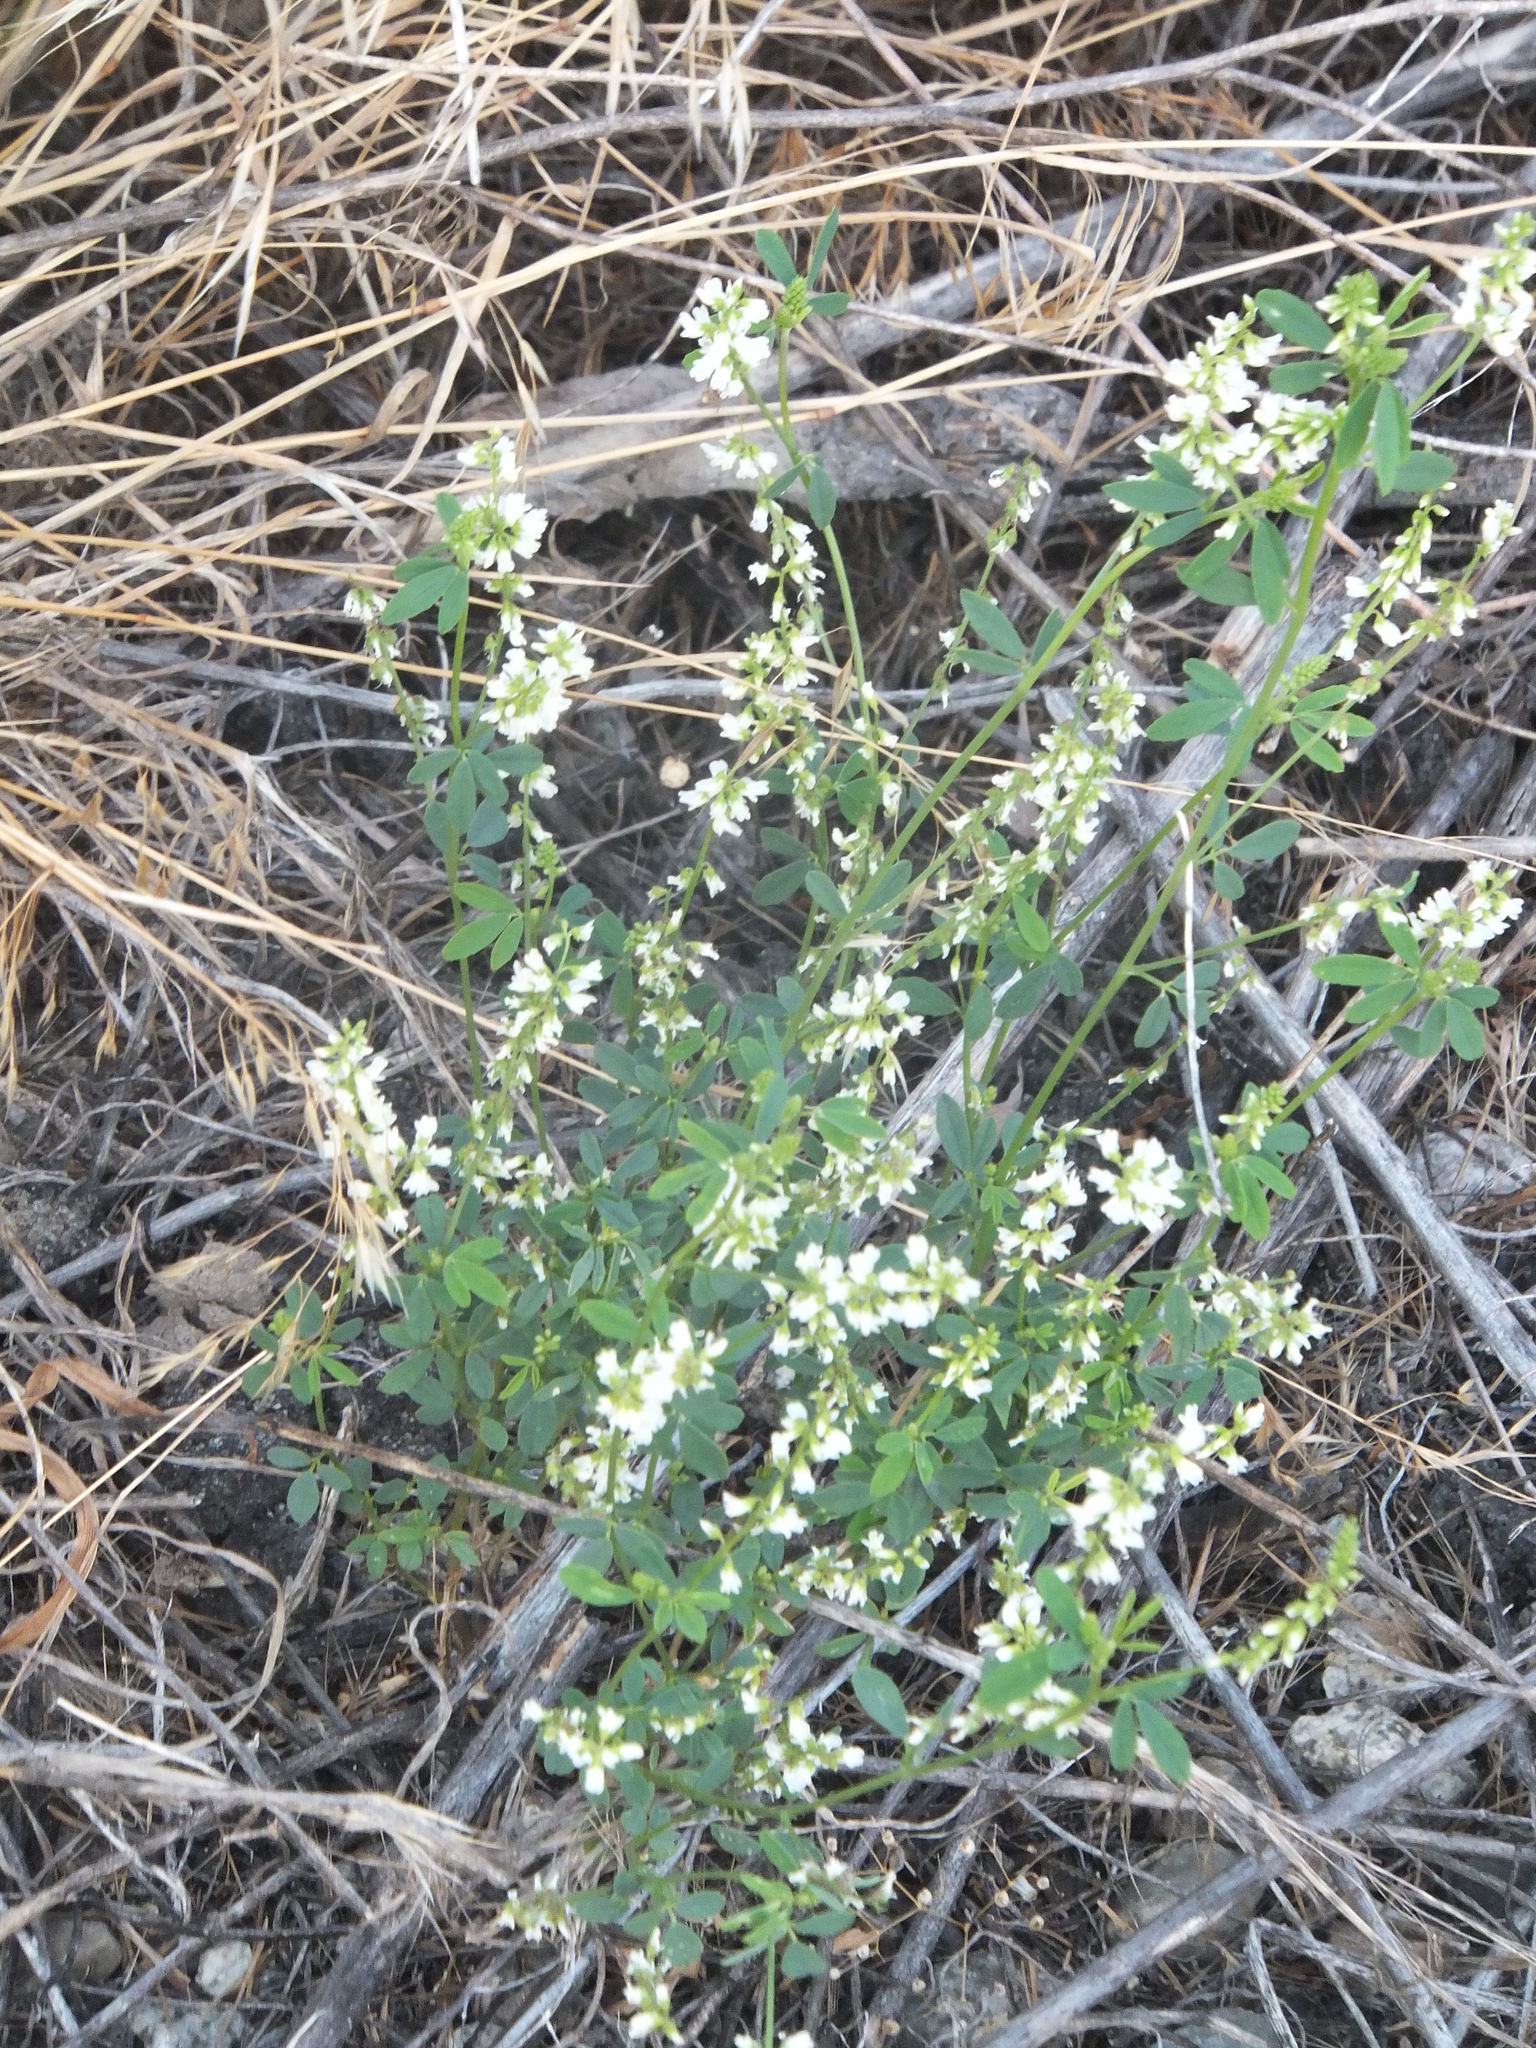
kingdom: Plantae
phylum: Tracheophyta
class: Magnoliopsida
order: Fabales
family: Fabaceae
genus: Melilotus
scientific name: Melilotus albus
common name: White melilot
